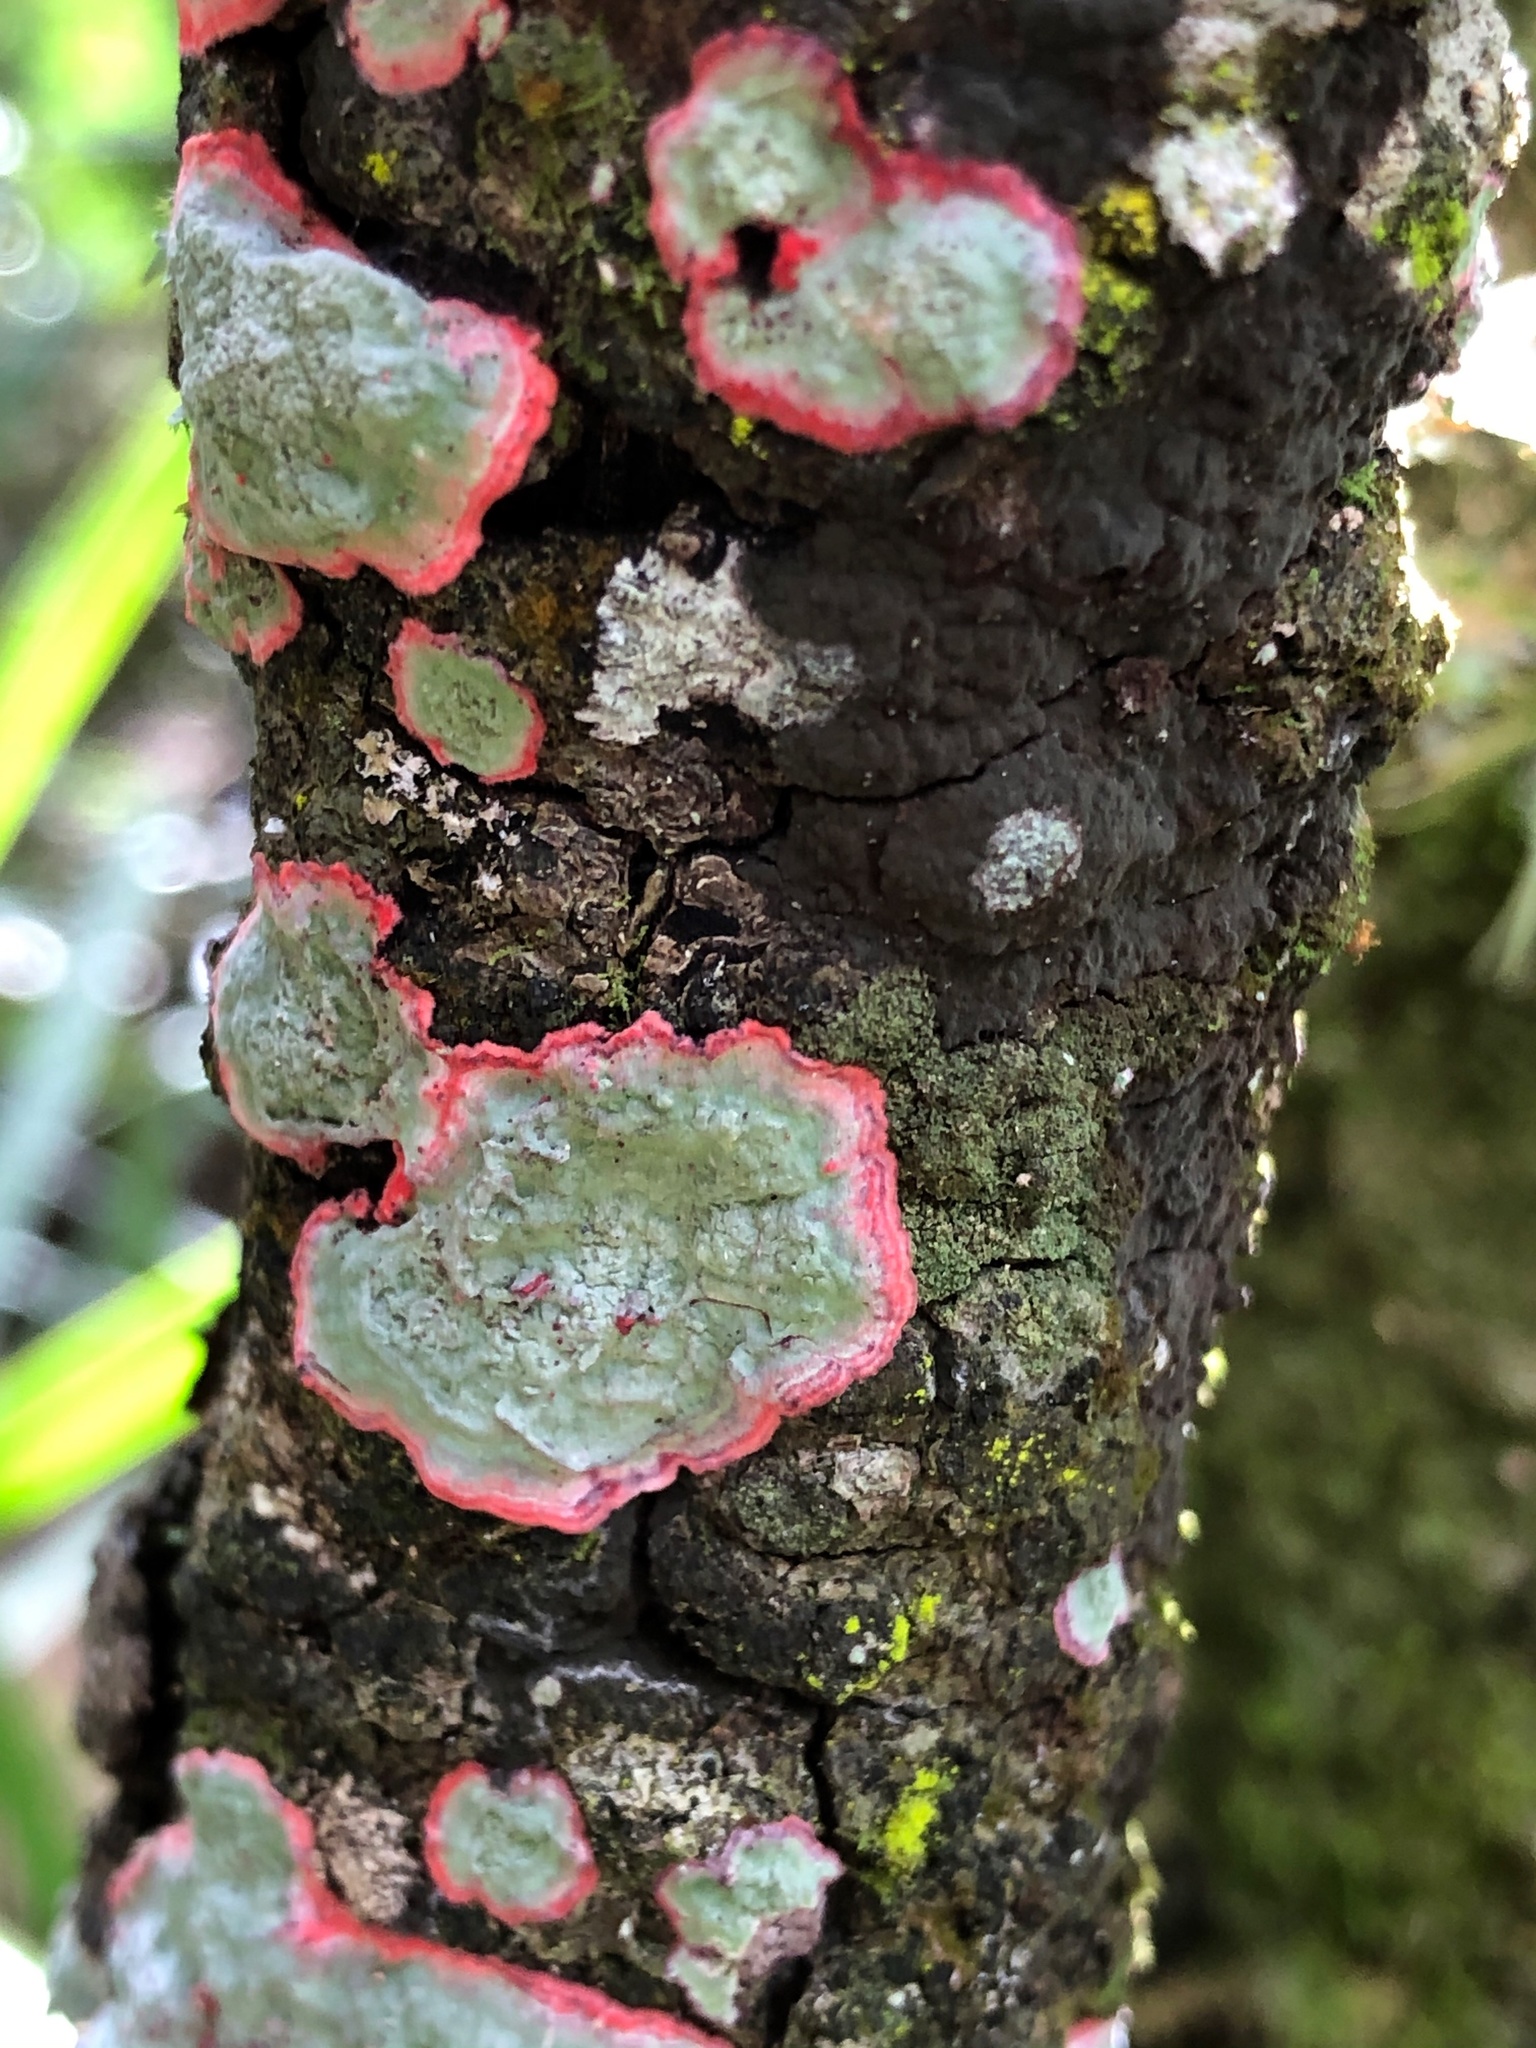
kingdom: Fungi
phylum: Ascomycota
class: Arthoniomycetes
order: Arthoniales
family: Arthoniaceae
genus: Herpothallon
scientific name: Herpothallon rubrocinctum
